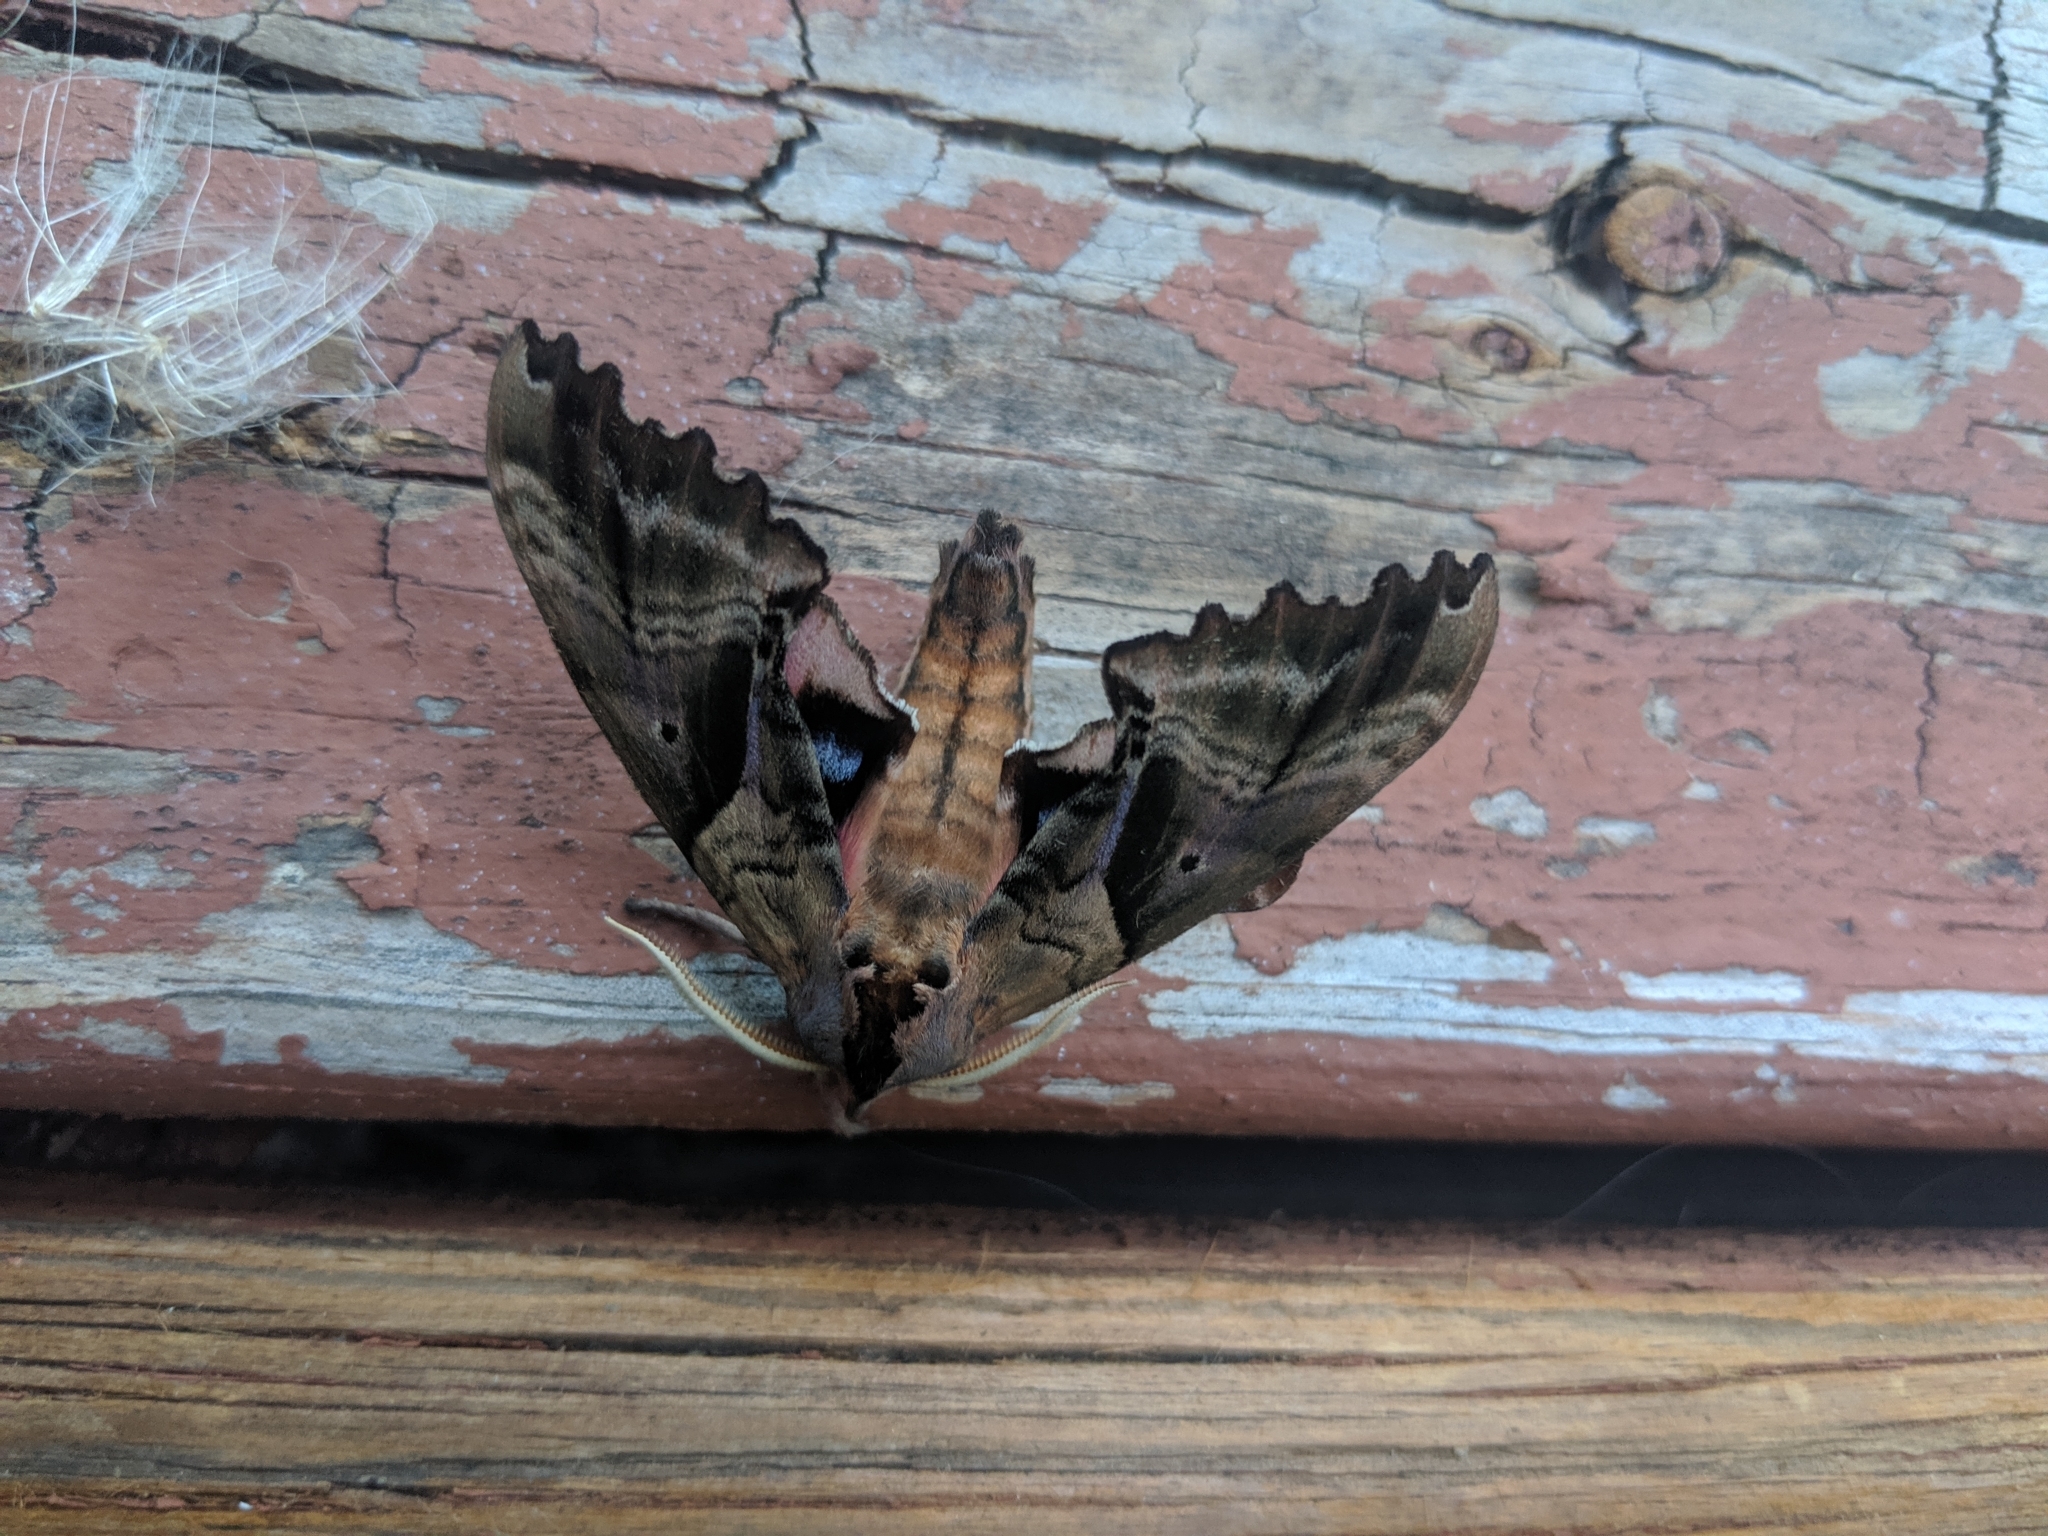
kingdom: Animalia
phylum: Arthropoda
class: Insecta
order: Lepidoptera
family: Sphingidae
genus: Paonias
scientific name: Paonias excaecata
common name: Blind-eyed sphinx
